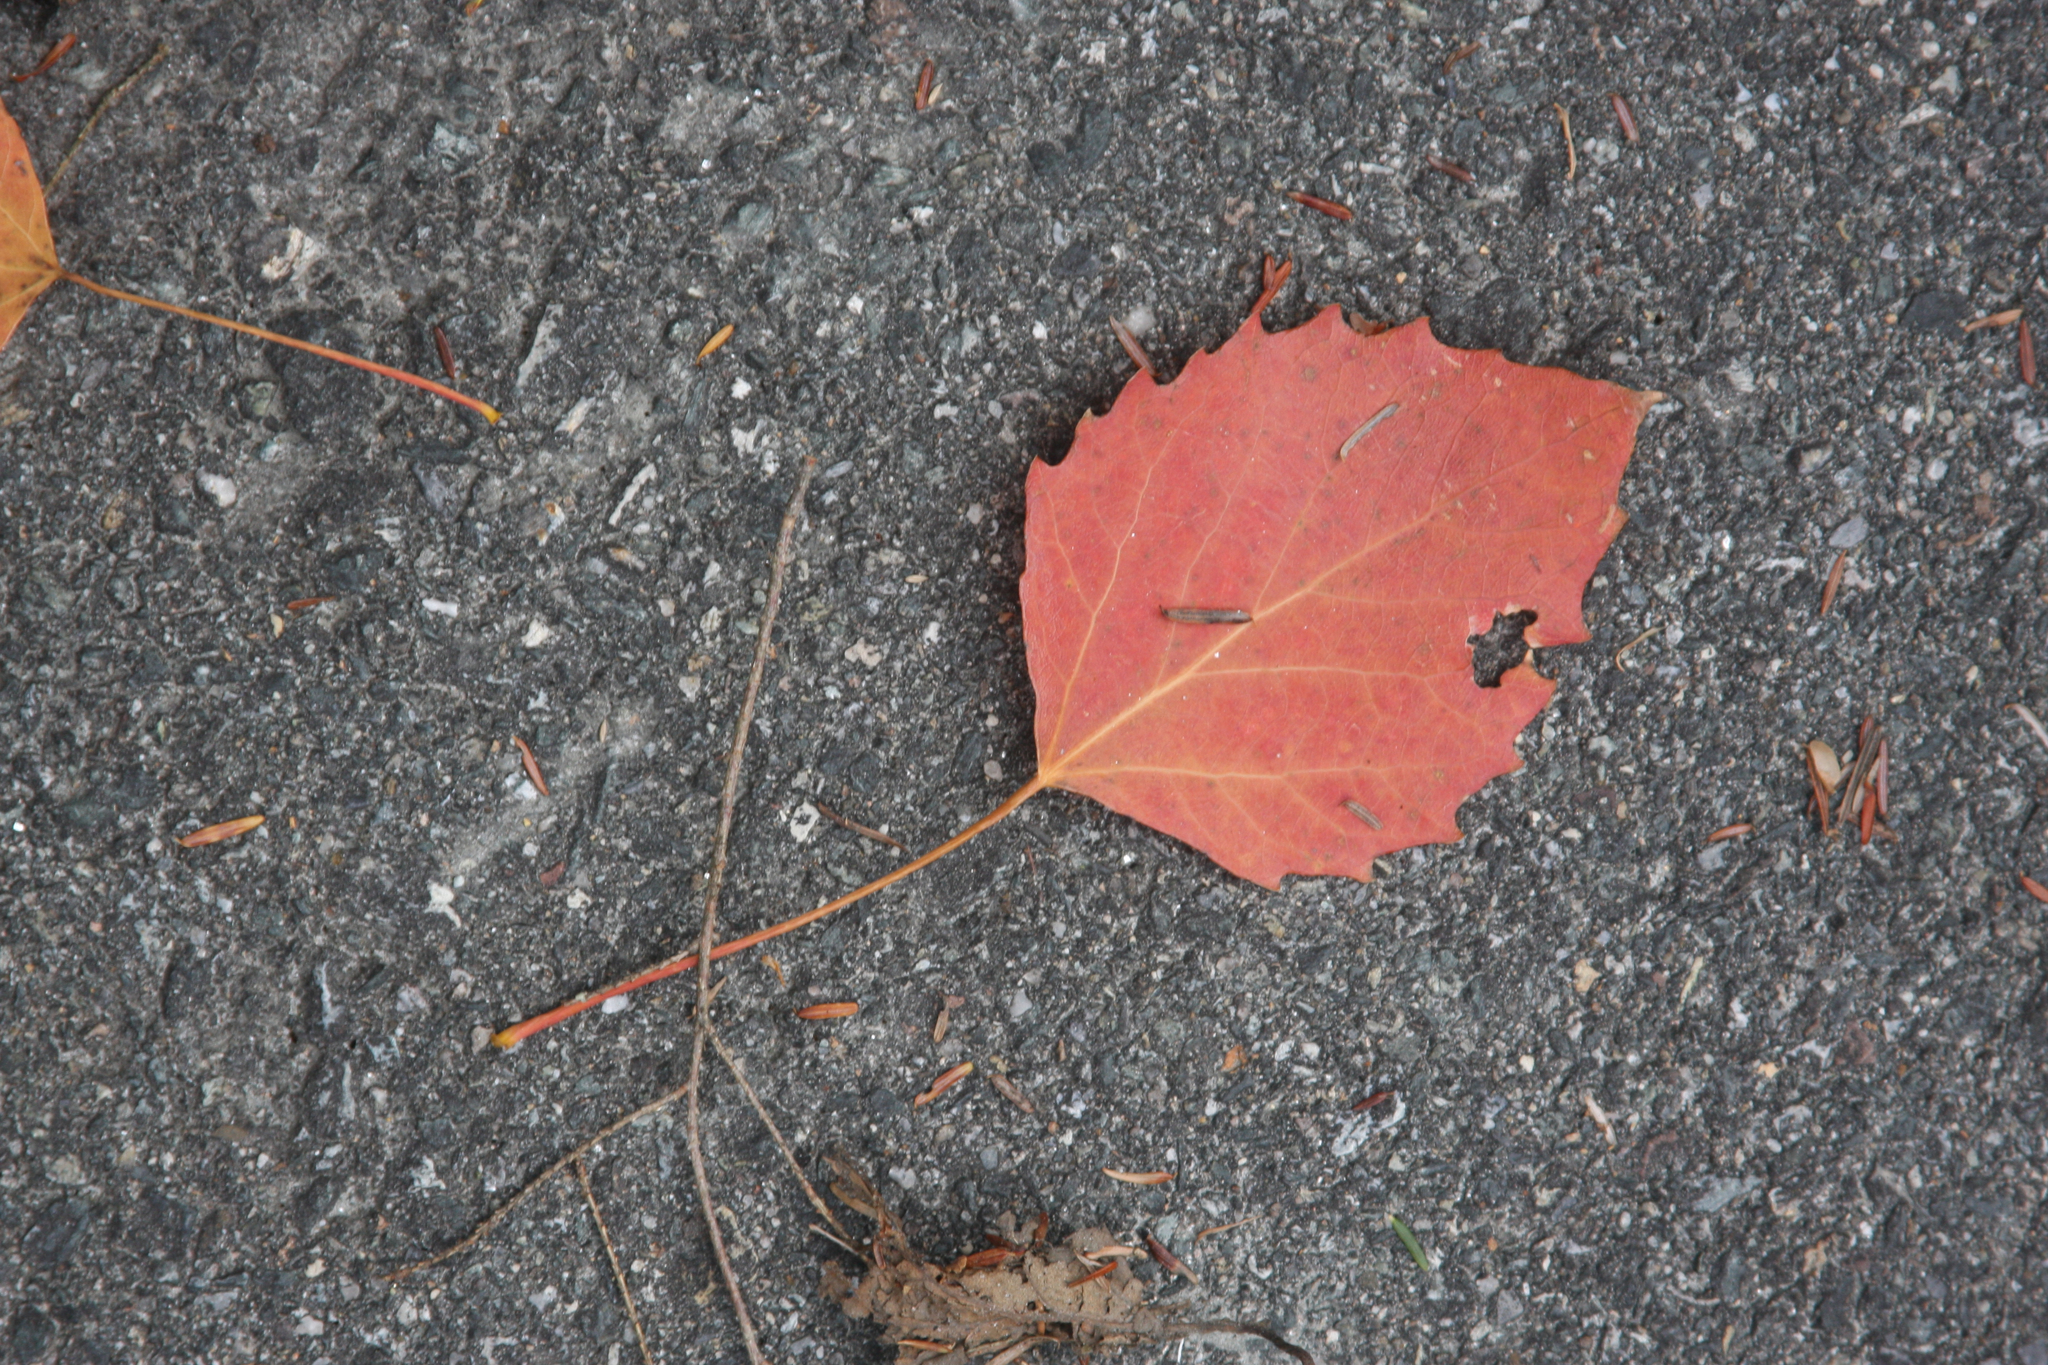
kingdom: Plantae
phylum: Tracheophyta
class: Magnoliopsida
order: Malpighiales
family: Salicaceae
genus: Populus
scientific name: Populus grandidentata
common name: Bigtooth aspen
